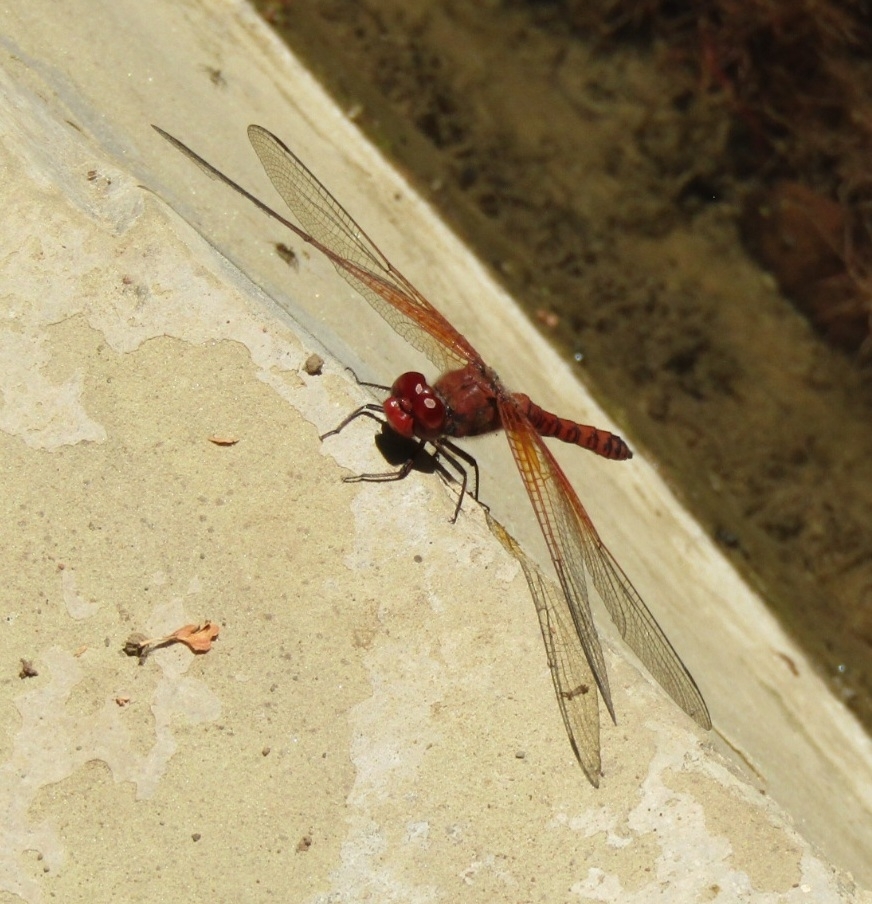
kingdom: Animalia
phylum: Arthropoda
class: Insecta
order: Odonata
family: Libellulidae
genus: Paltothemis
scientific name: Paltothemis lineatipes
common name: Red rock skimmer
